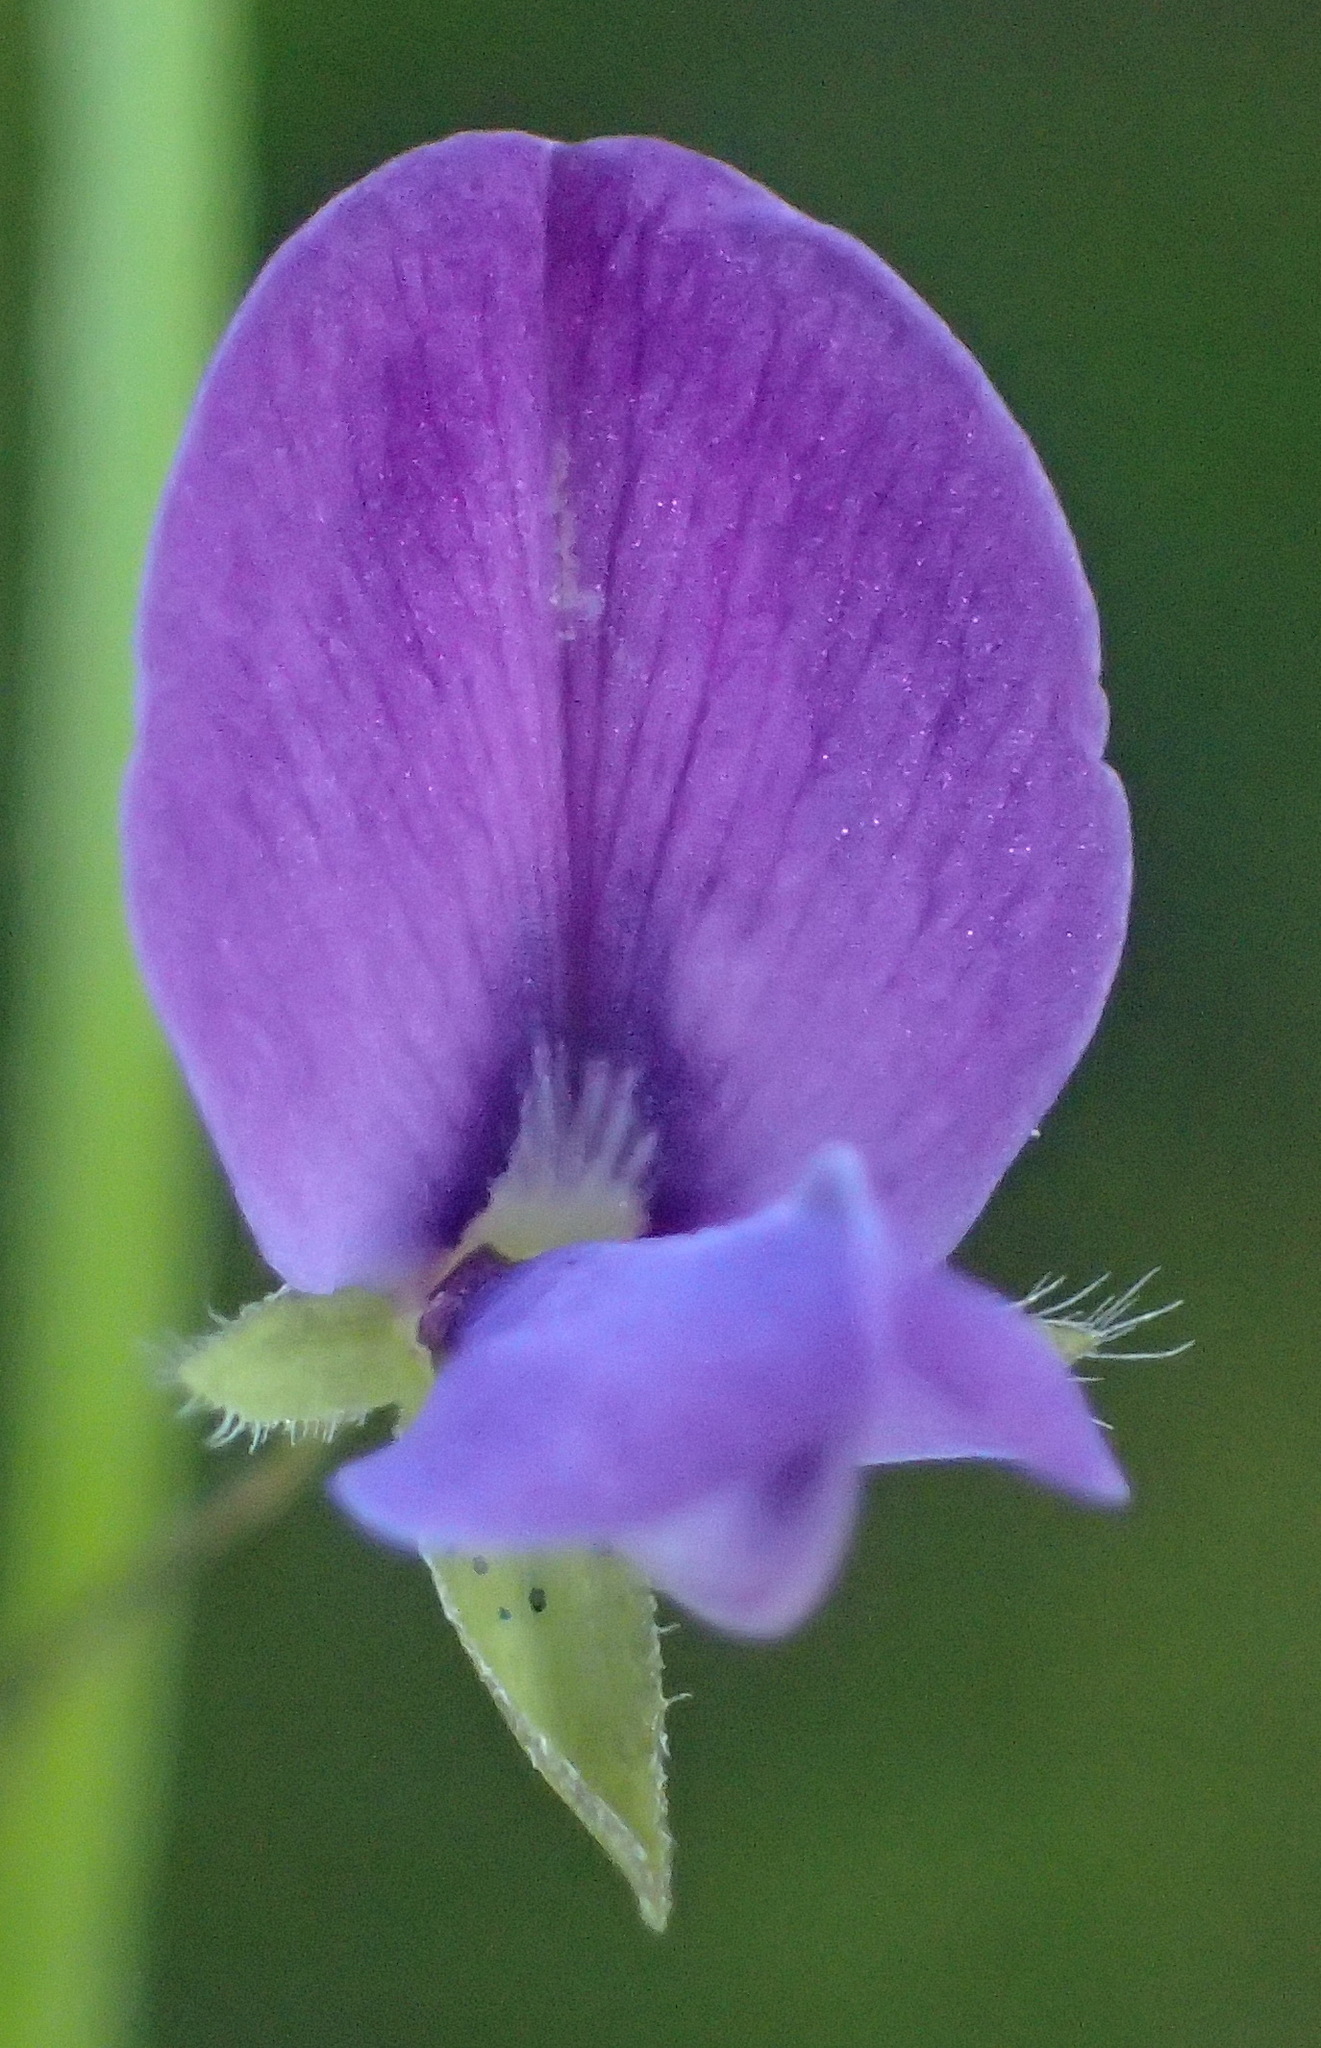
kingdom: Plantae
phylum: Tracheophyta
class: Magnoliopsida
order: Fabales
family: Fabaceae
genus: Psoralea
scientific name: Psoralea plauta
